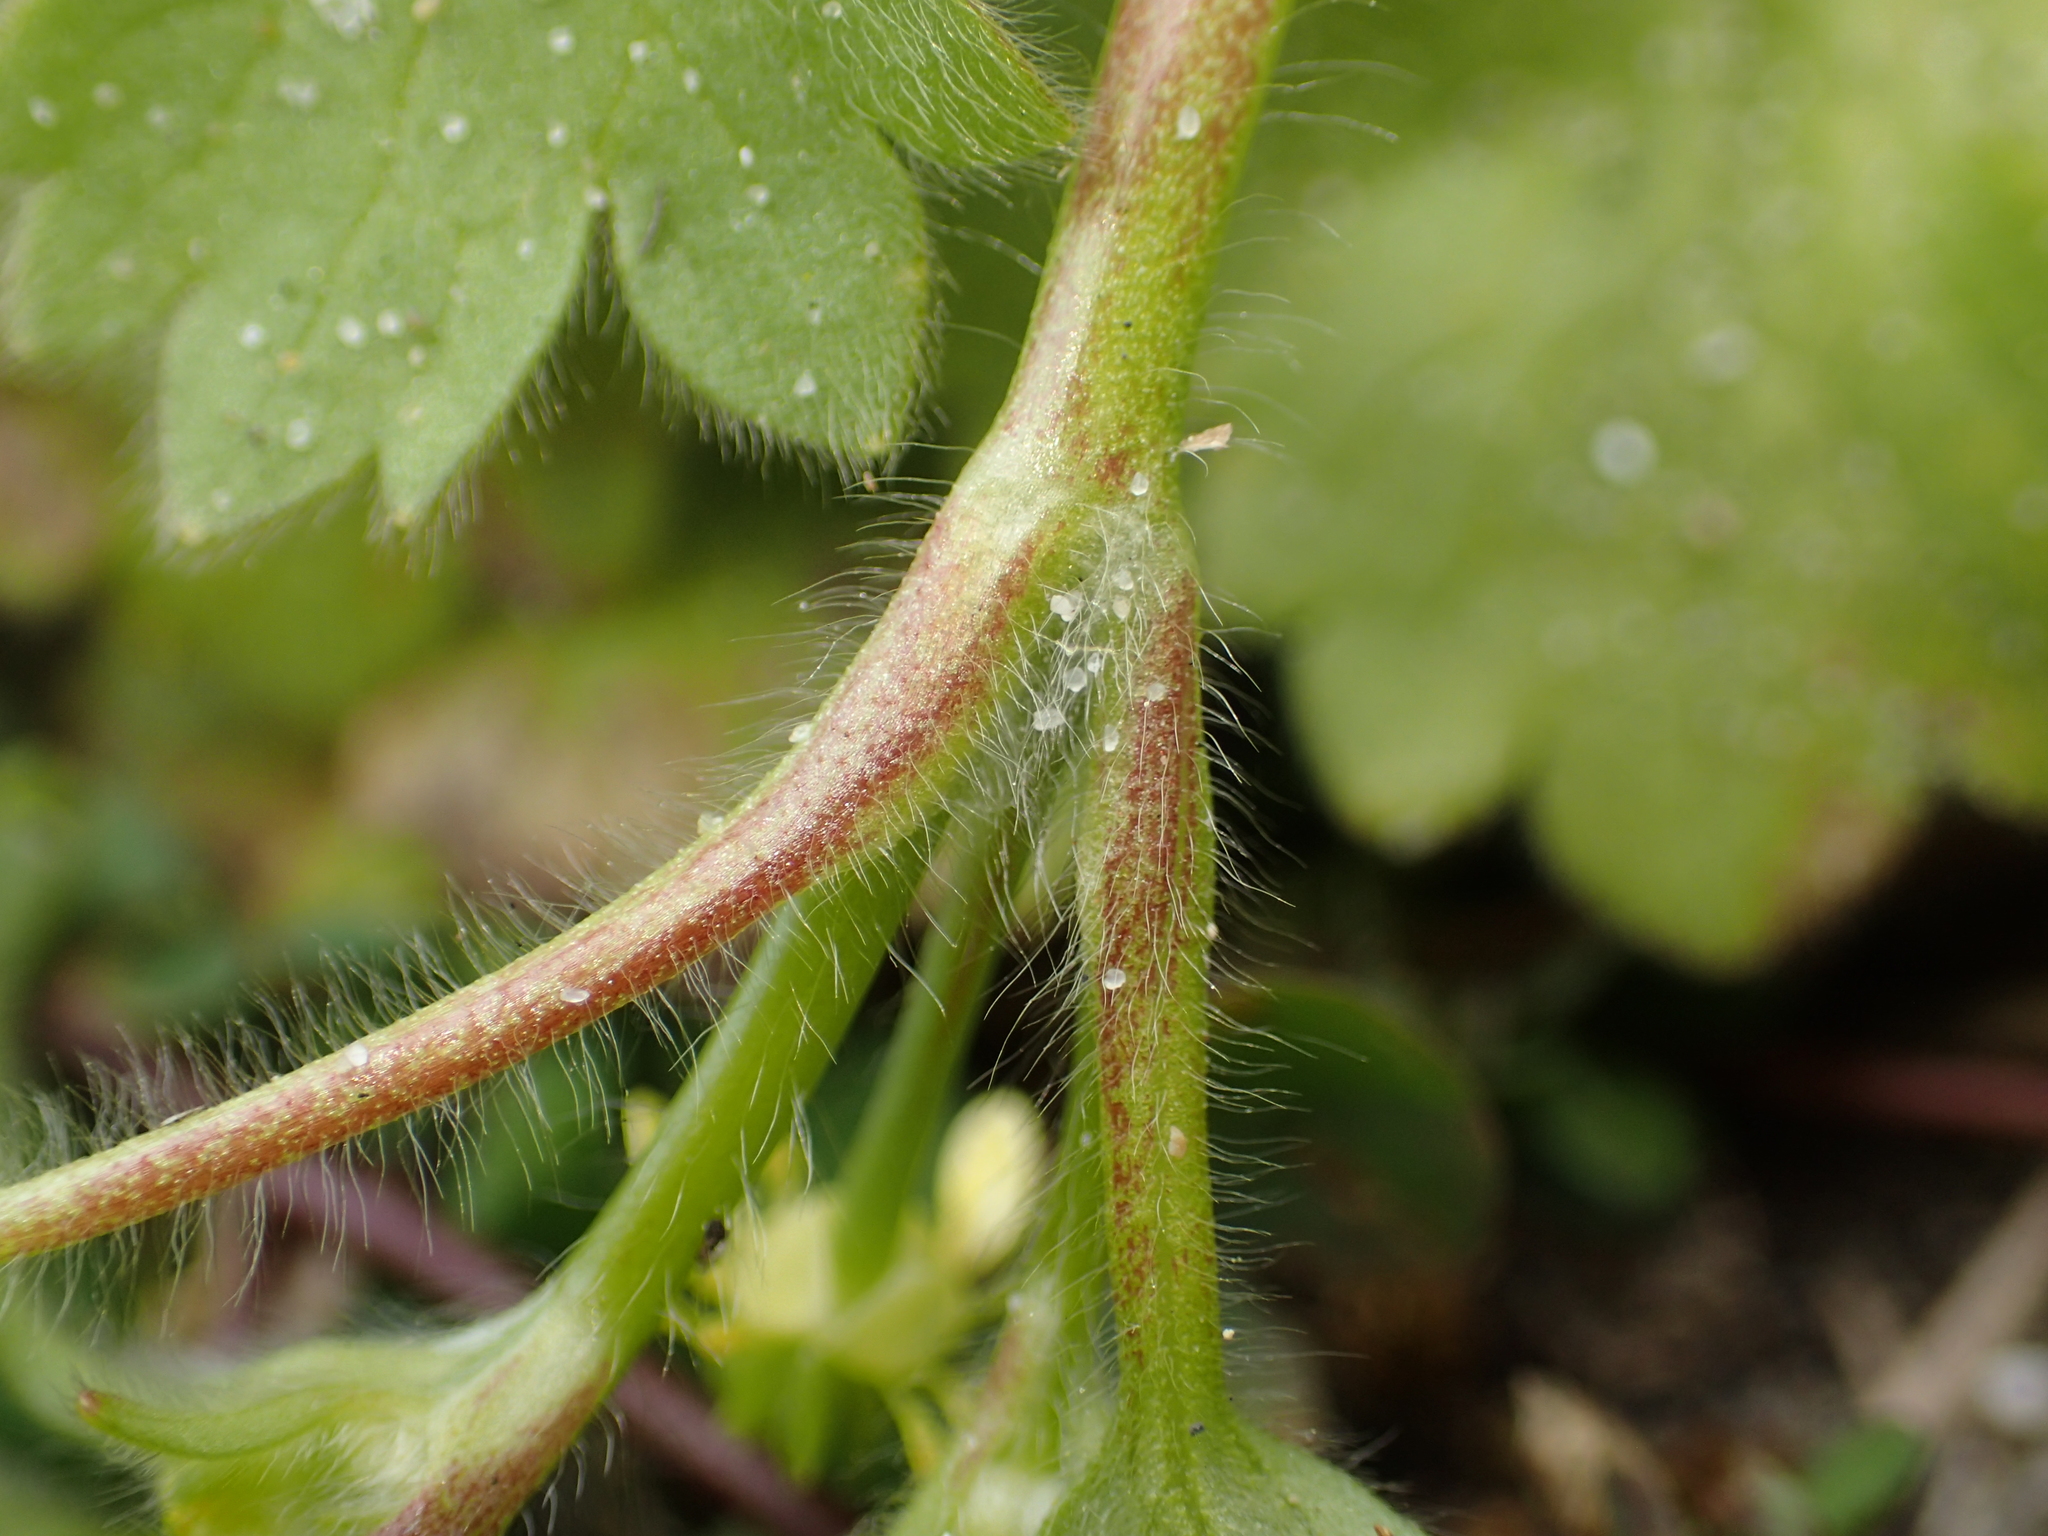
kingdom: Plantae
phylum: Tracheophyta
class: Magnoliopsida
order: Ranunculales
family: Ranunculaceae
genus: Ranunculus
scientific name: Ranunculus parviflorus
